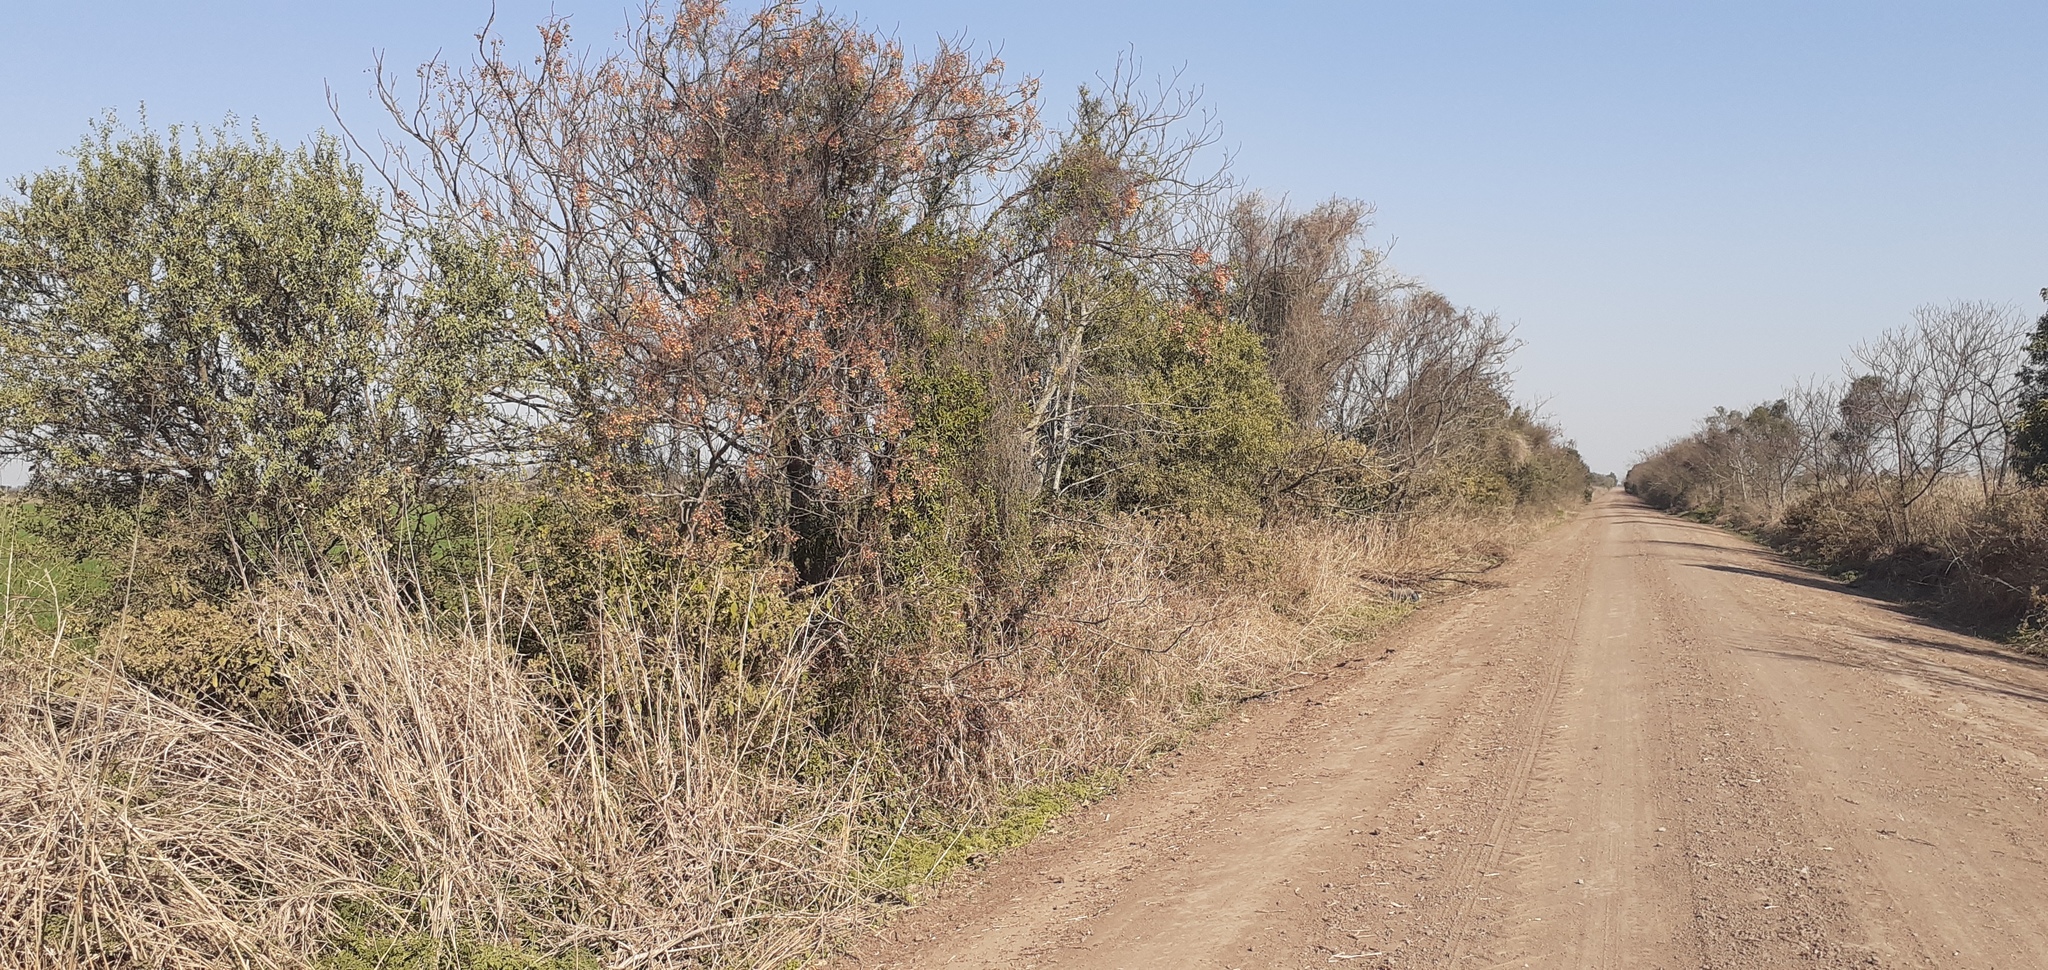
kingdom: Plantae
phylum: Tracheophyta
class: Magnoliopsida
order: Santalales
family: Cervantesiaceae
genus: Jodina
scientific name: Jodina rhombifolia
